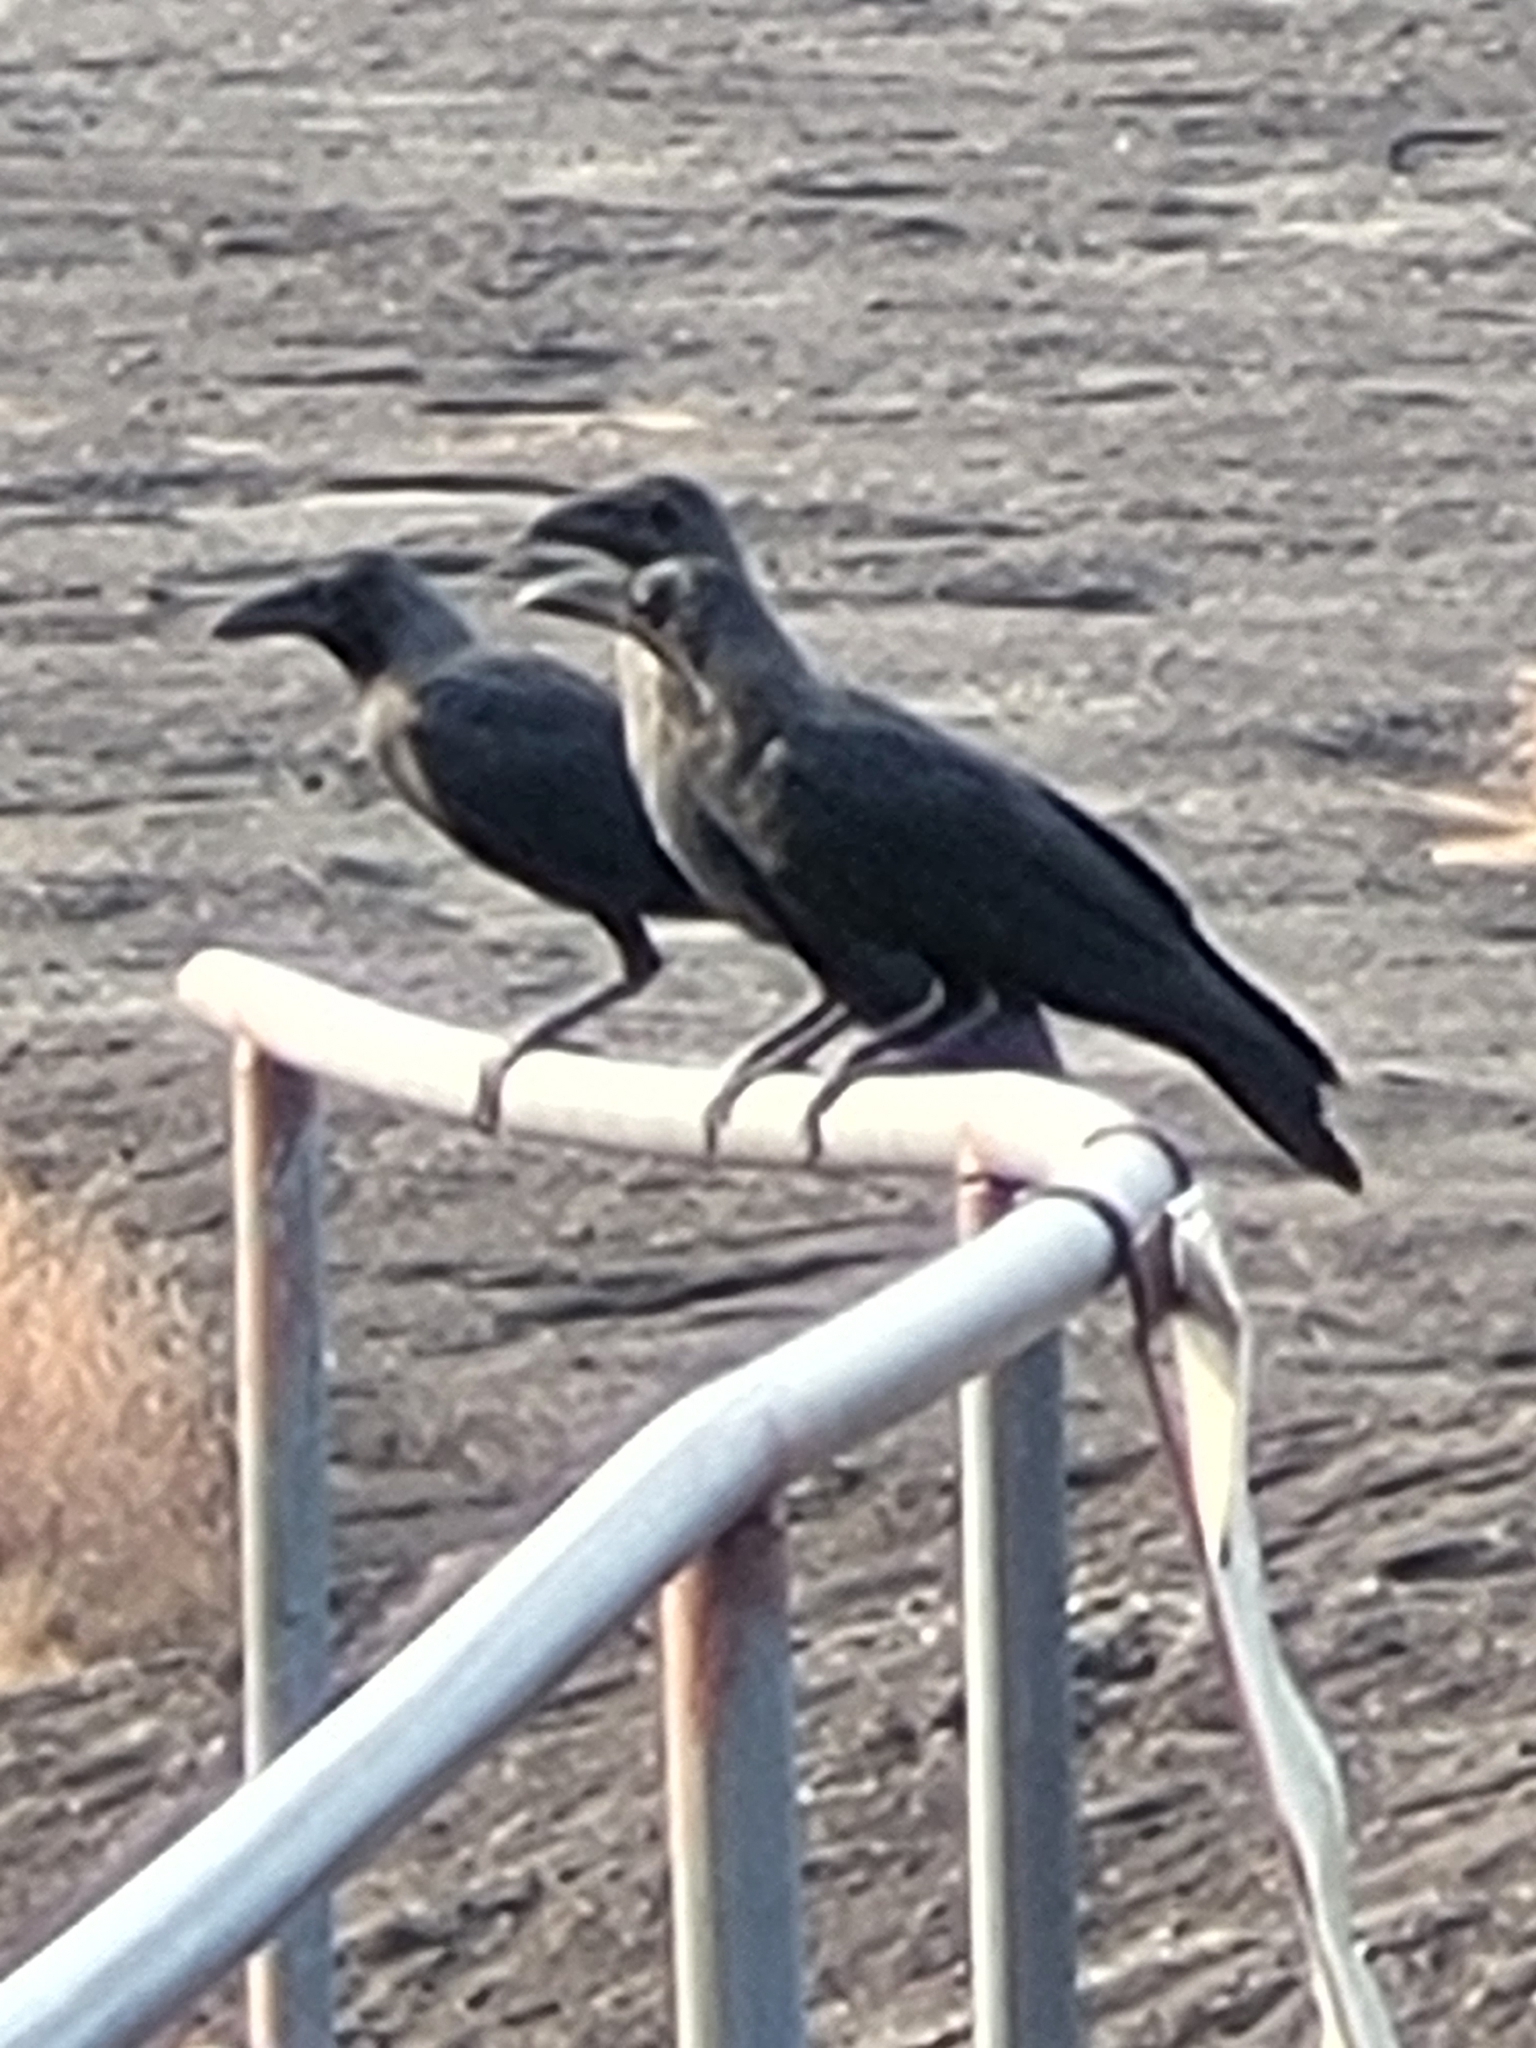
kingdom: Animalia
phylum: Chordata
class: Aves
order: Passeriformes
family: Corvidae
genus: Corvus
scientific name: Corvus splendens
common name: House crow
